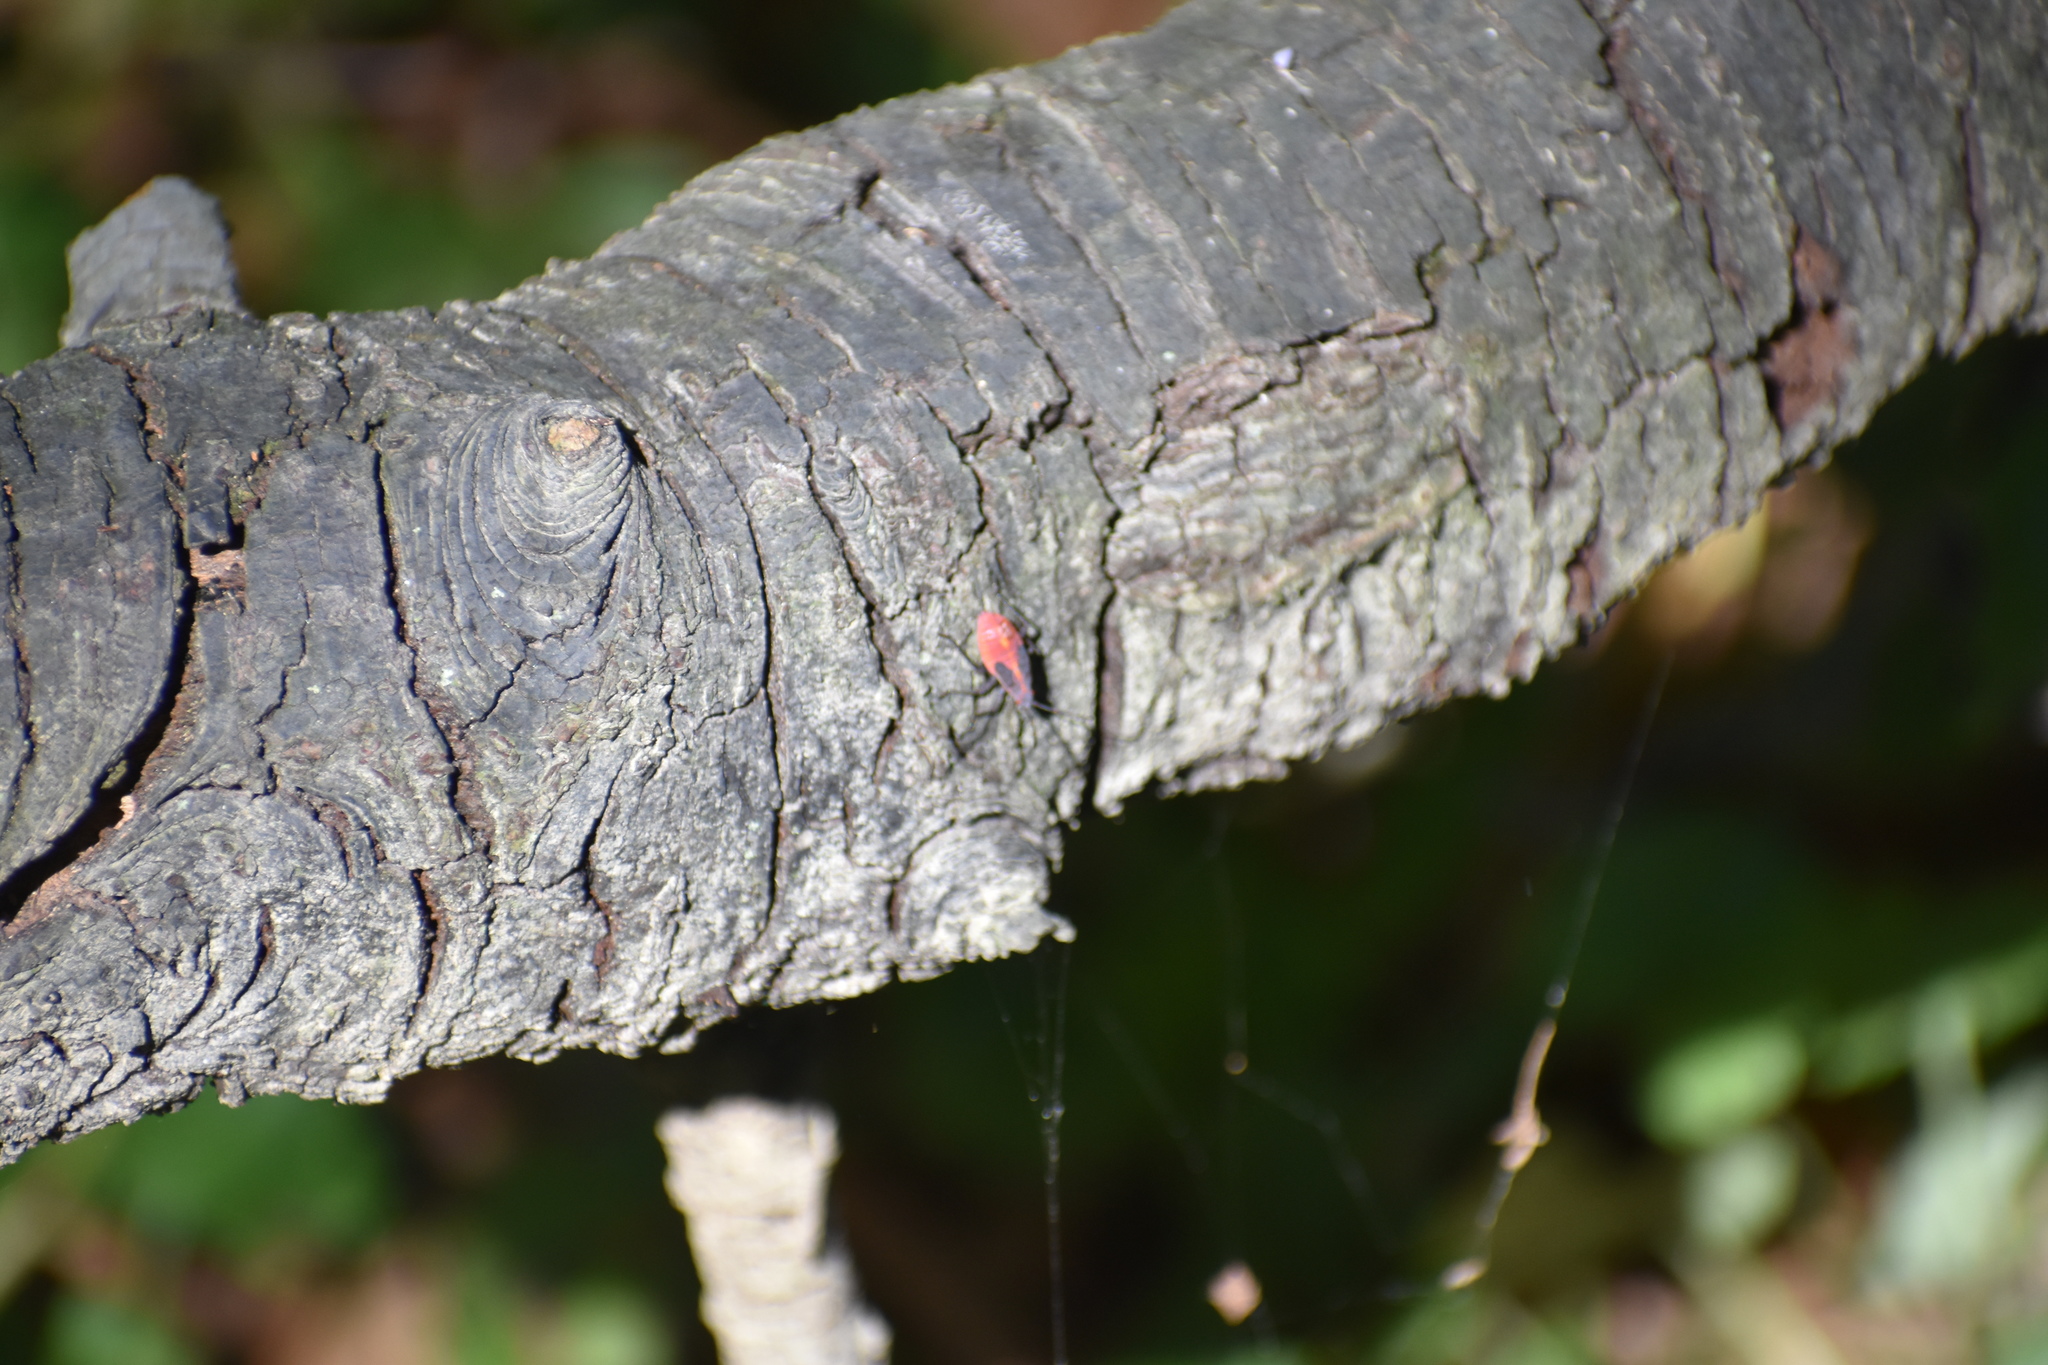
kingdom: Animalia
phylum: Arthropoda
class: Insecta
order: Hemiptera
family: Rhopalidae
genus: Boisea
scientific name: Boisea trivittata
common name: Boxelder bug
